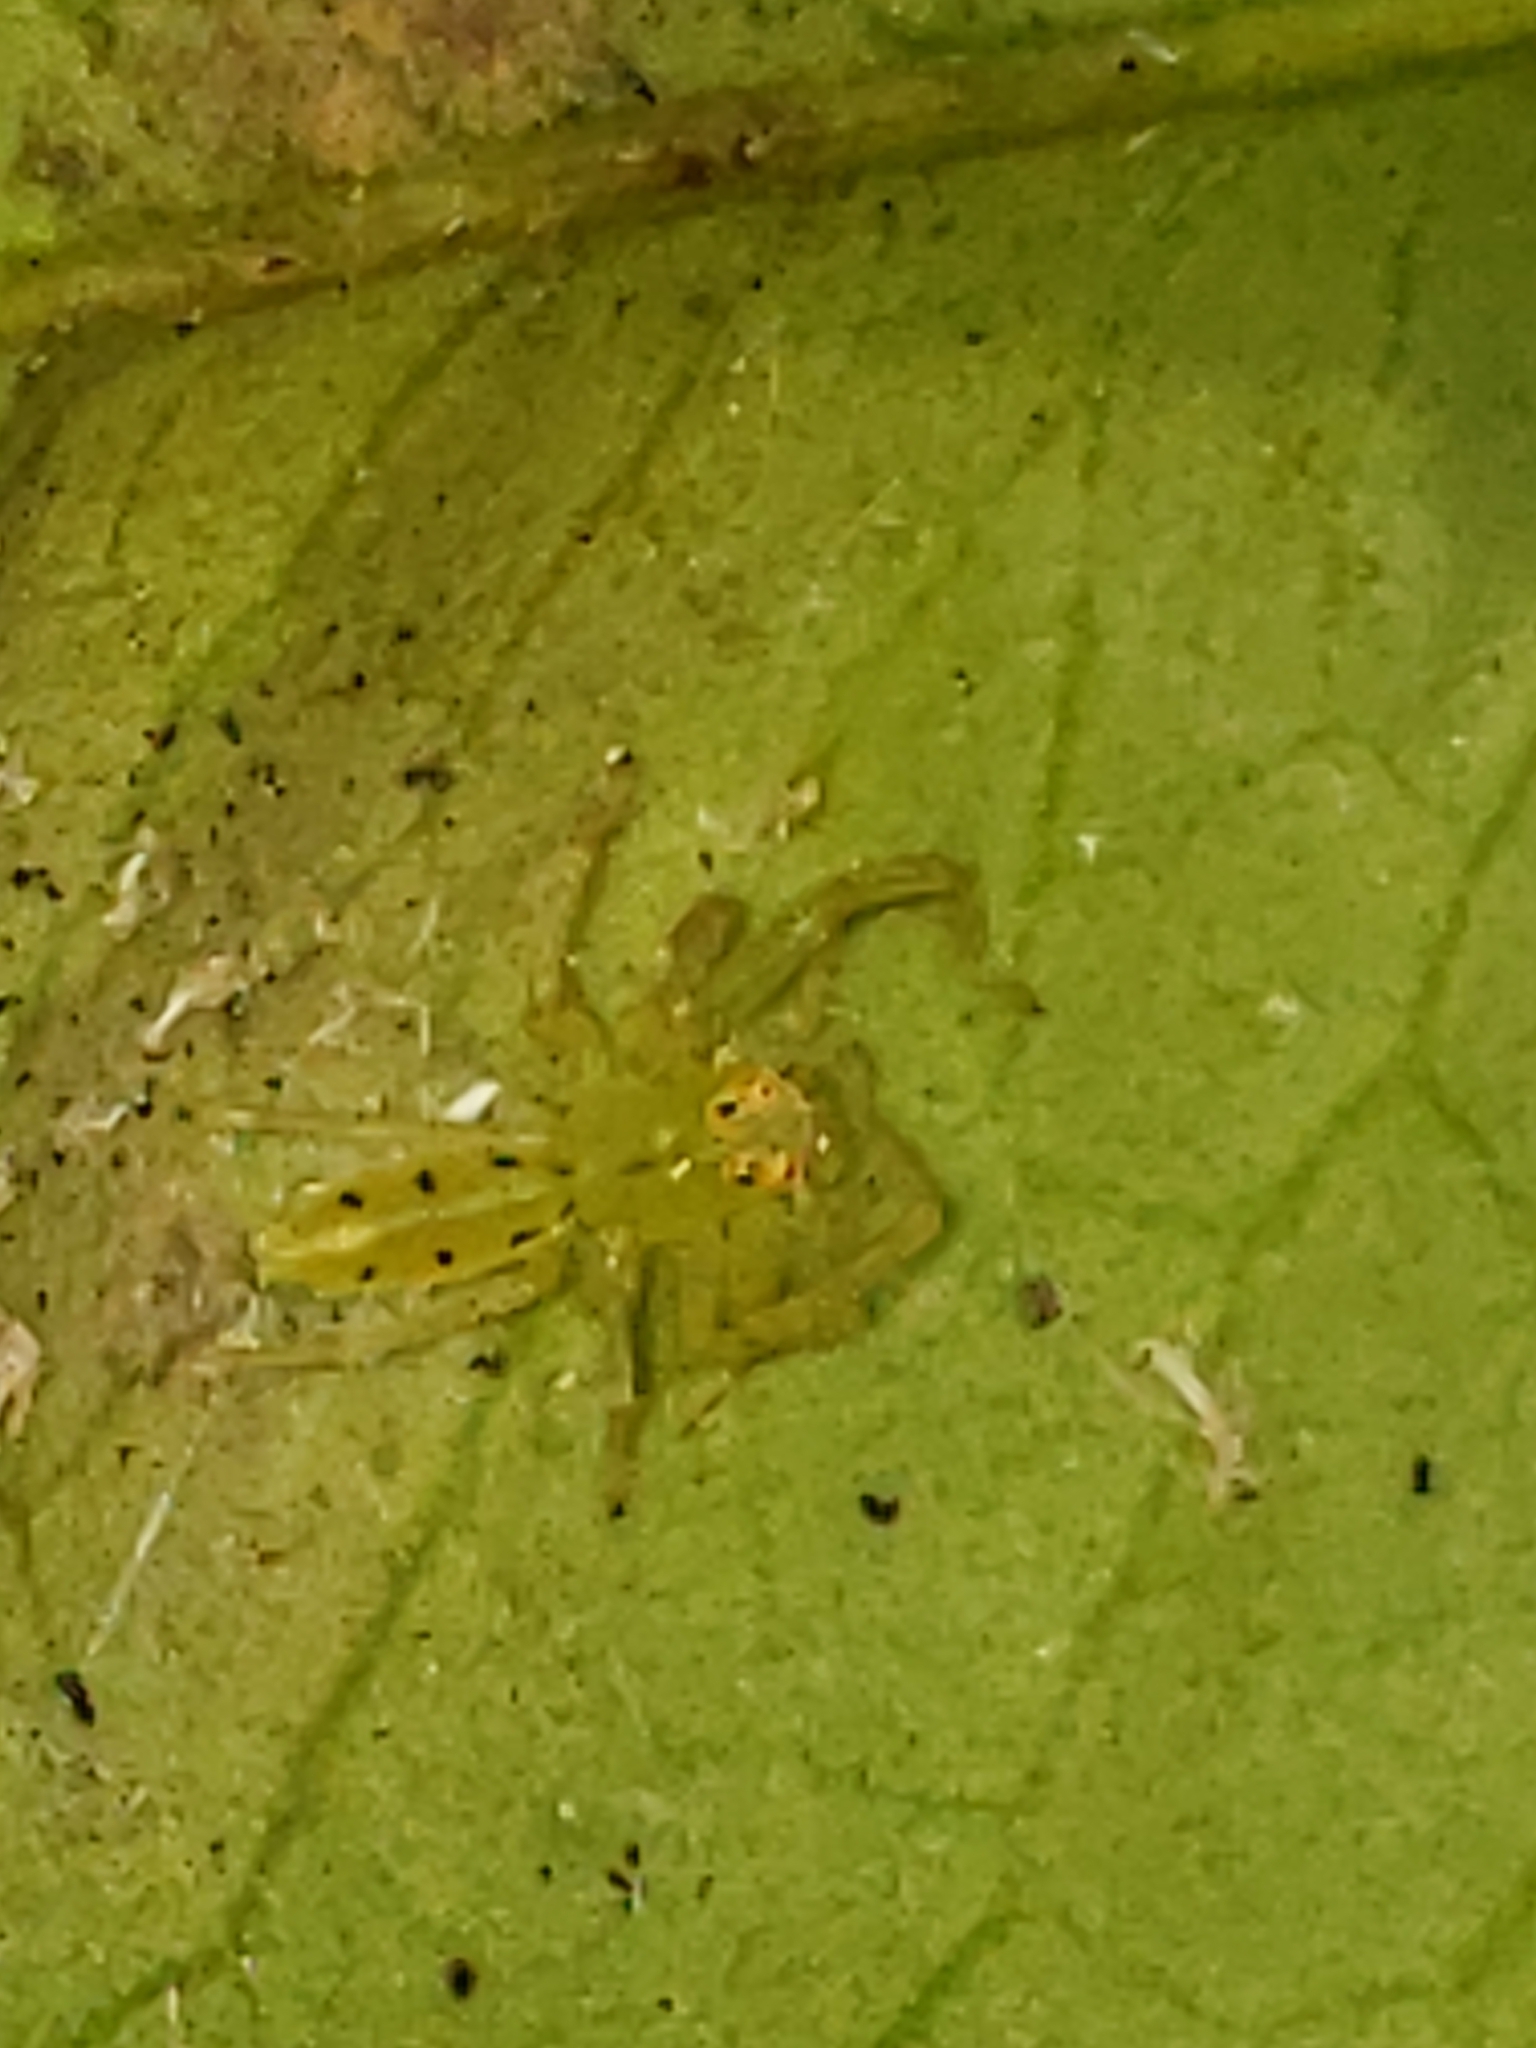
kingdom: Animalia
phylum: Arthropoda
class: Arachnida
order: Araneae
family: Salticidae
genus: Lyssomanes
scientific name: Lyssomanes viridis
